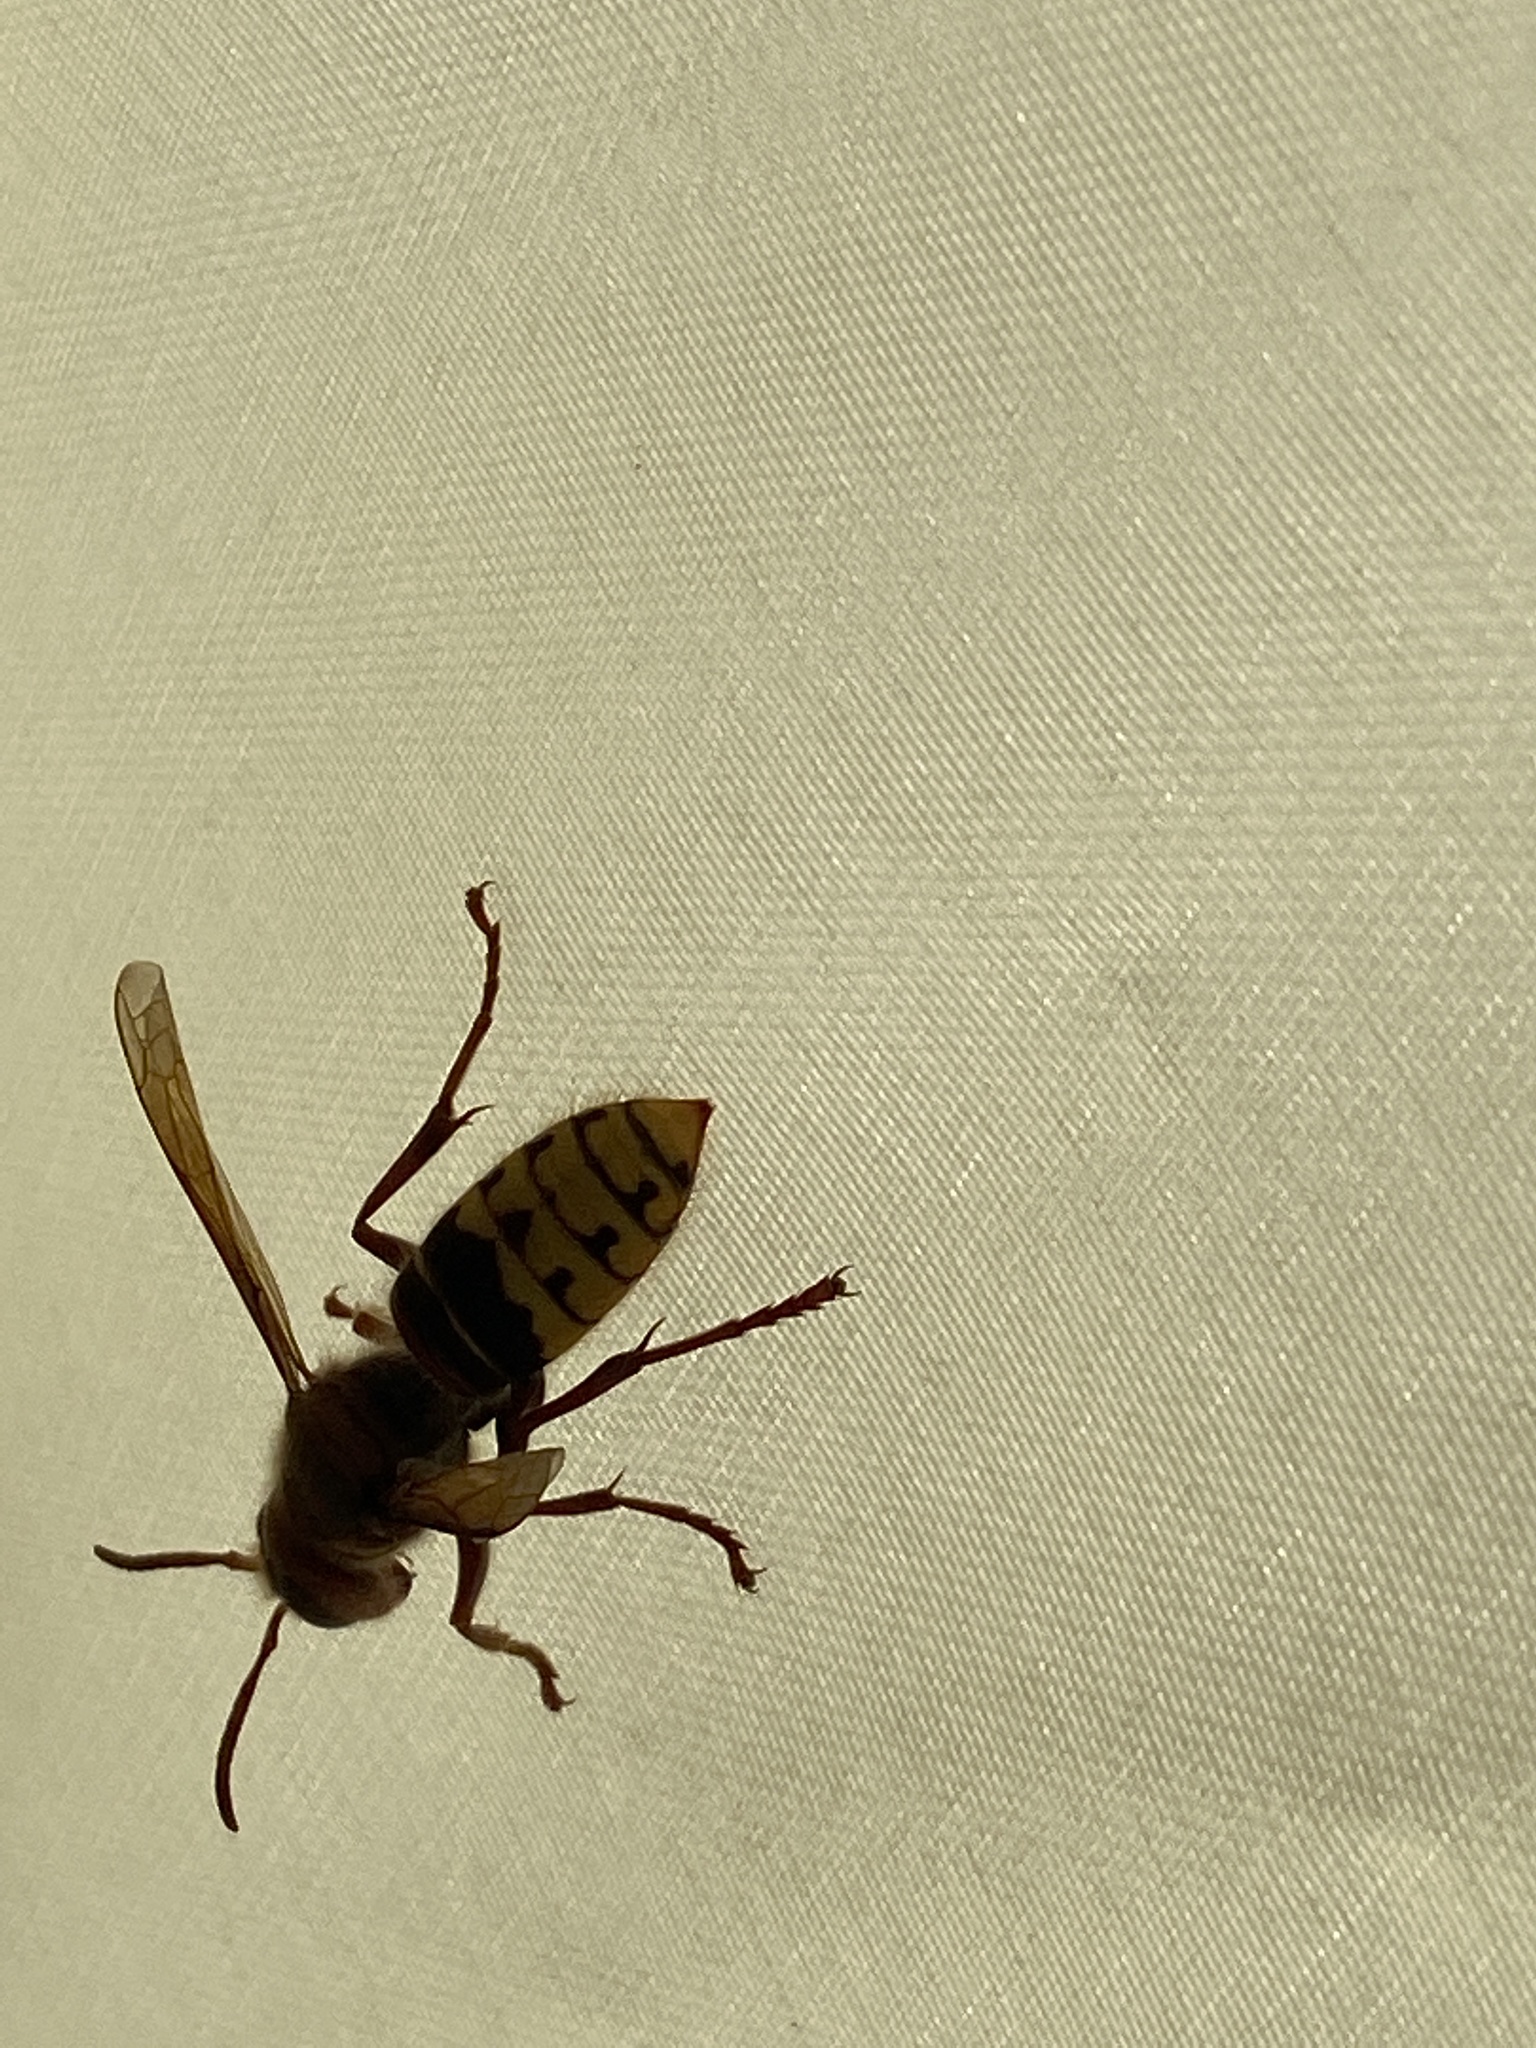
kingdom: Animalia
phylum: Arthropoda
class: Insecta
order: Hymenoptera
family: Vespidae
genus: Vespa
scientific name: Vespa crabro
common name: Hornet
